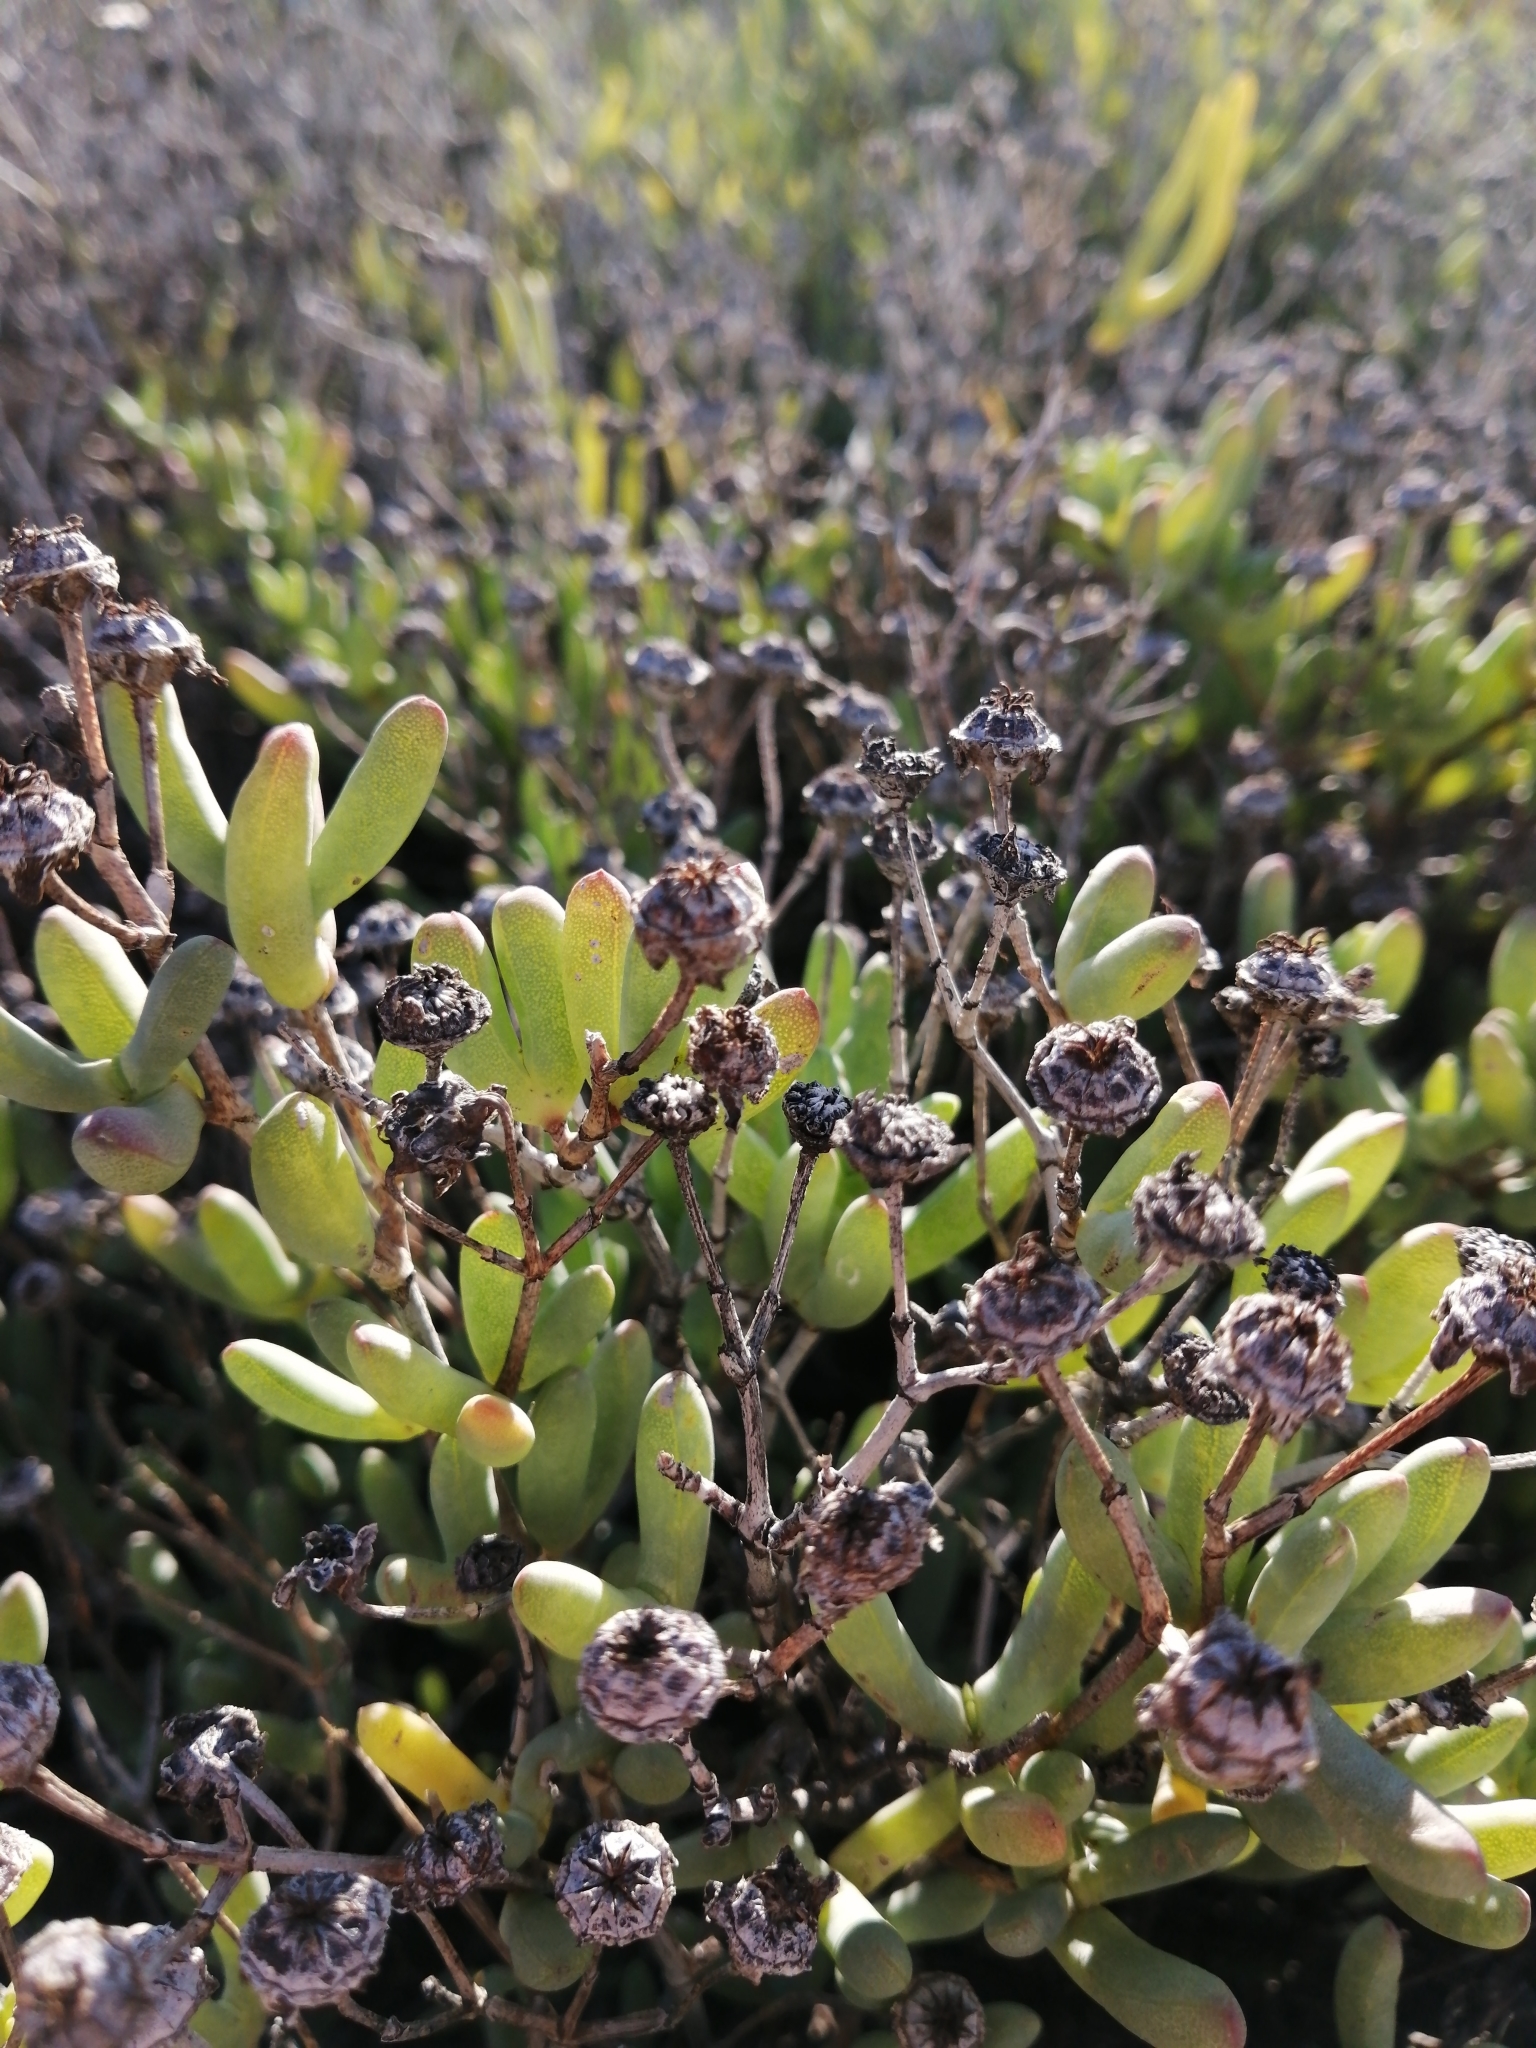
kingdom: Plantae
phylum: Tracheophyta
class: Magnoliopsida
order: Caryophyllales
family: Aizoaceae
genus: Leipoldtia
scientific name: Leipoldtia schultzei
